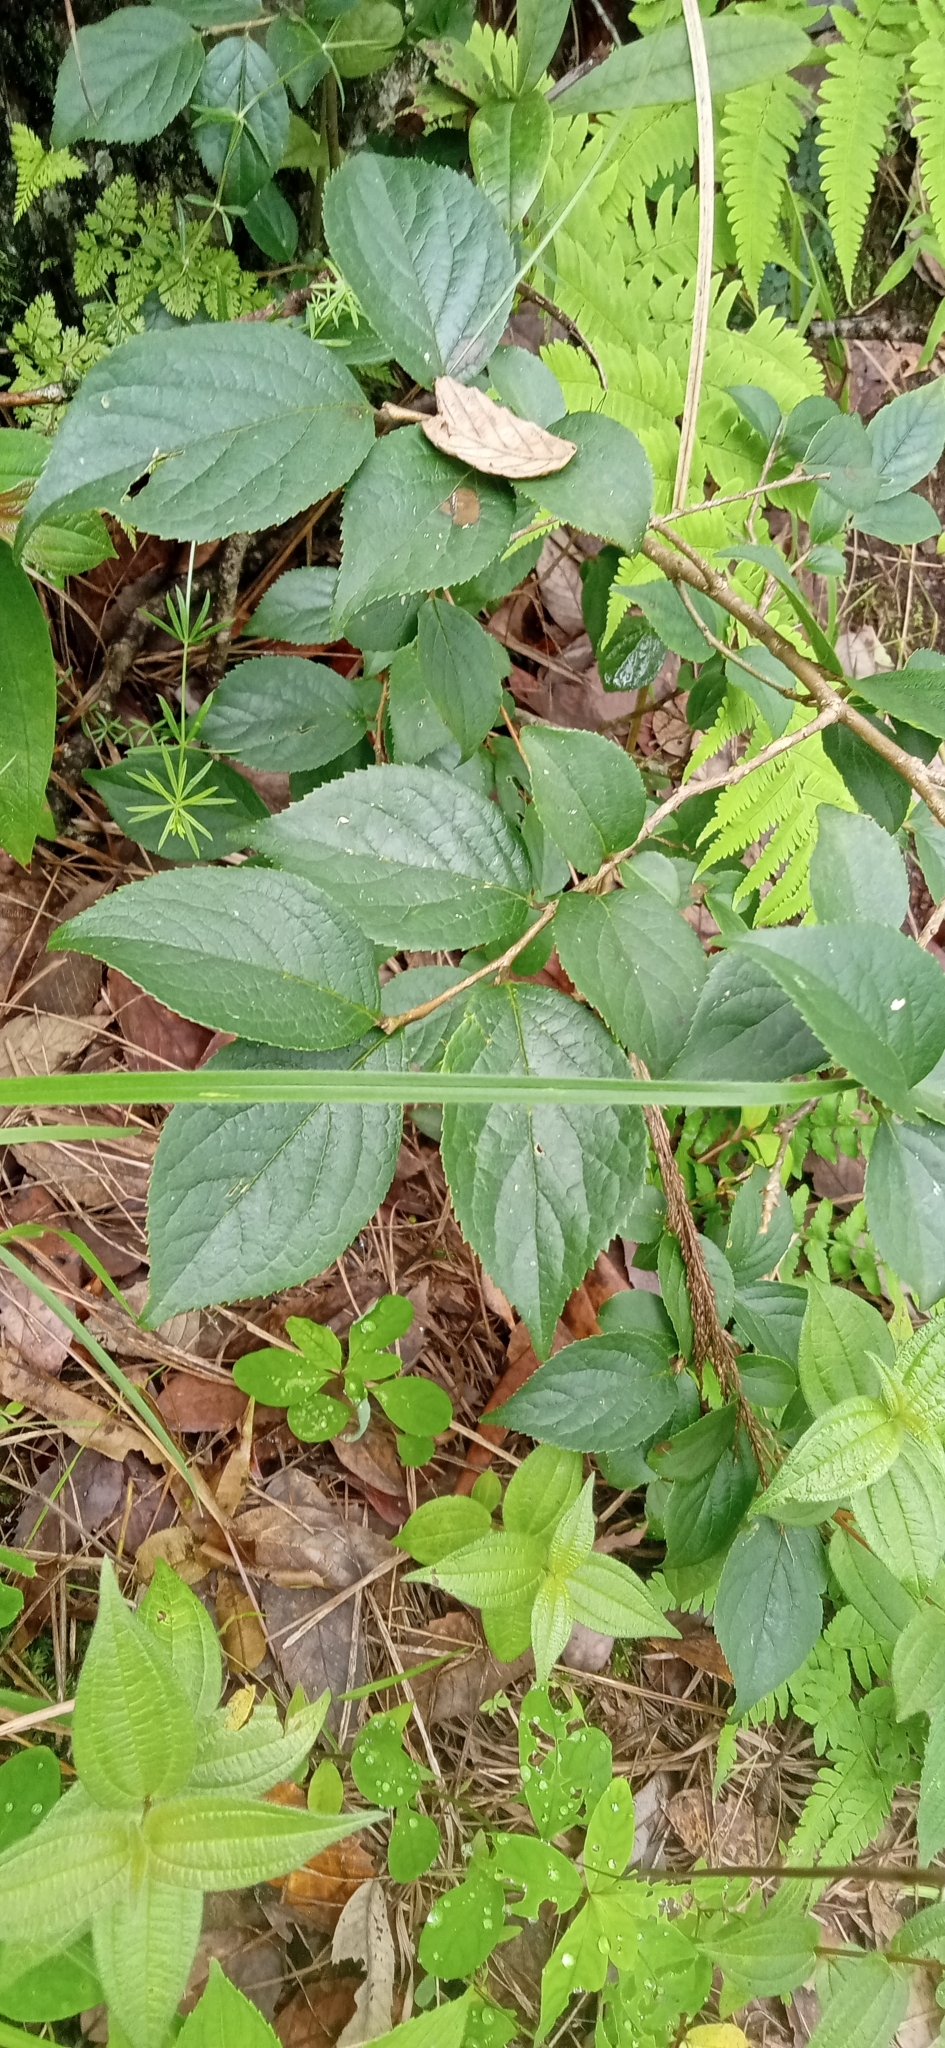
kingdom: Plantae
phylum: Tracheophyta
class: Magnoliopsida
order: Ericales
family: Symplocaceae
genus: Symplocos
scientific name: Symplocos paniculata
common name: Sapphire-berry
